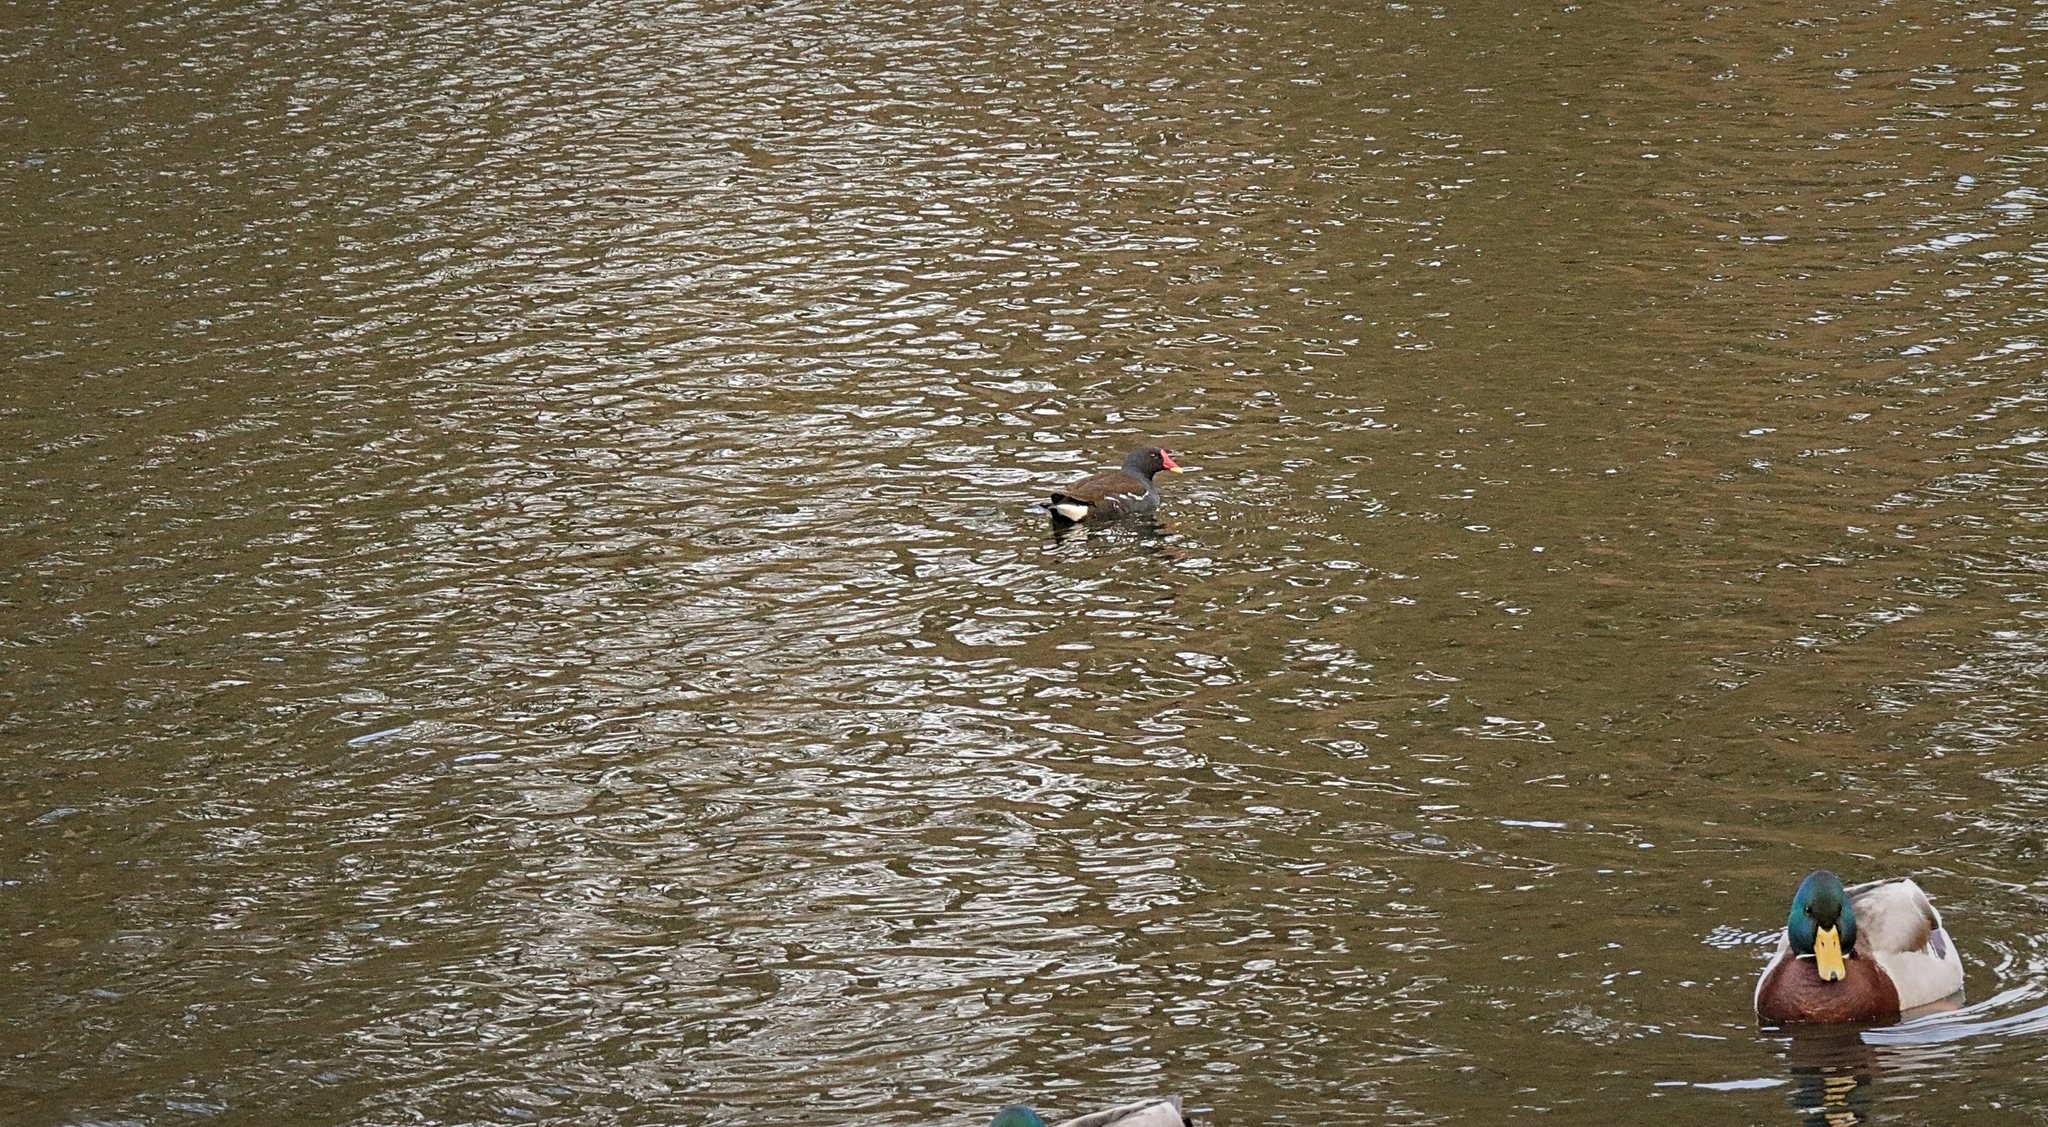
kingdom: Animalia
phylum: Chordata
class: Aves
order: Gruiformes
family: Rallidae
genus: Gallinula
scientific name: Gallinula chloropus
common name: Common moorhen
